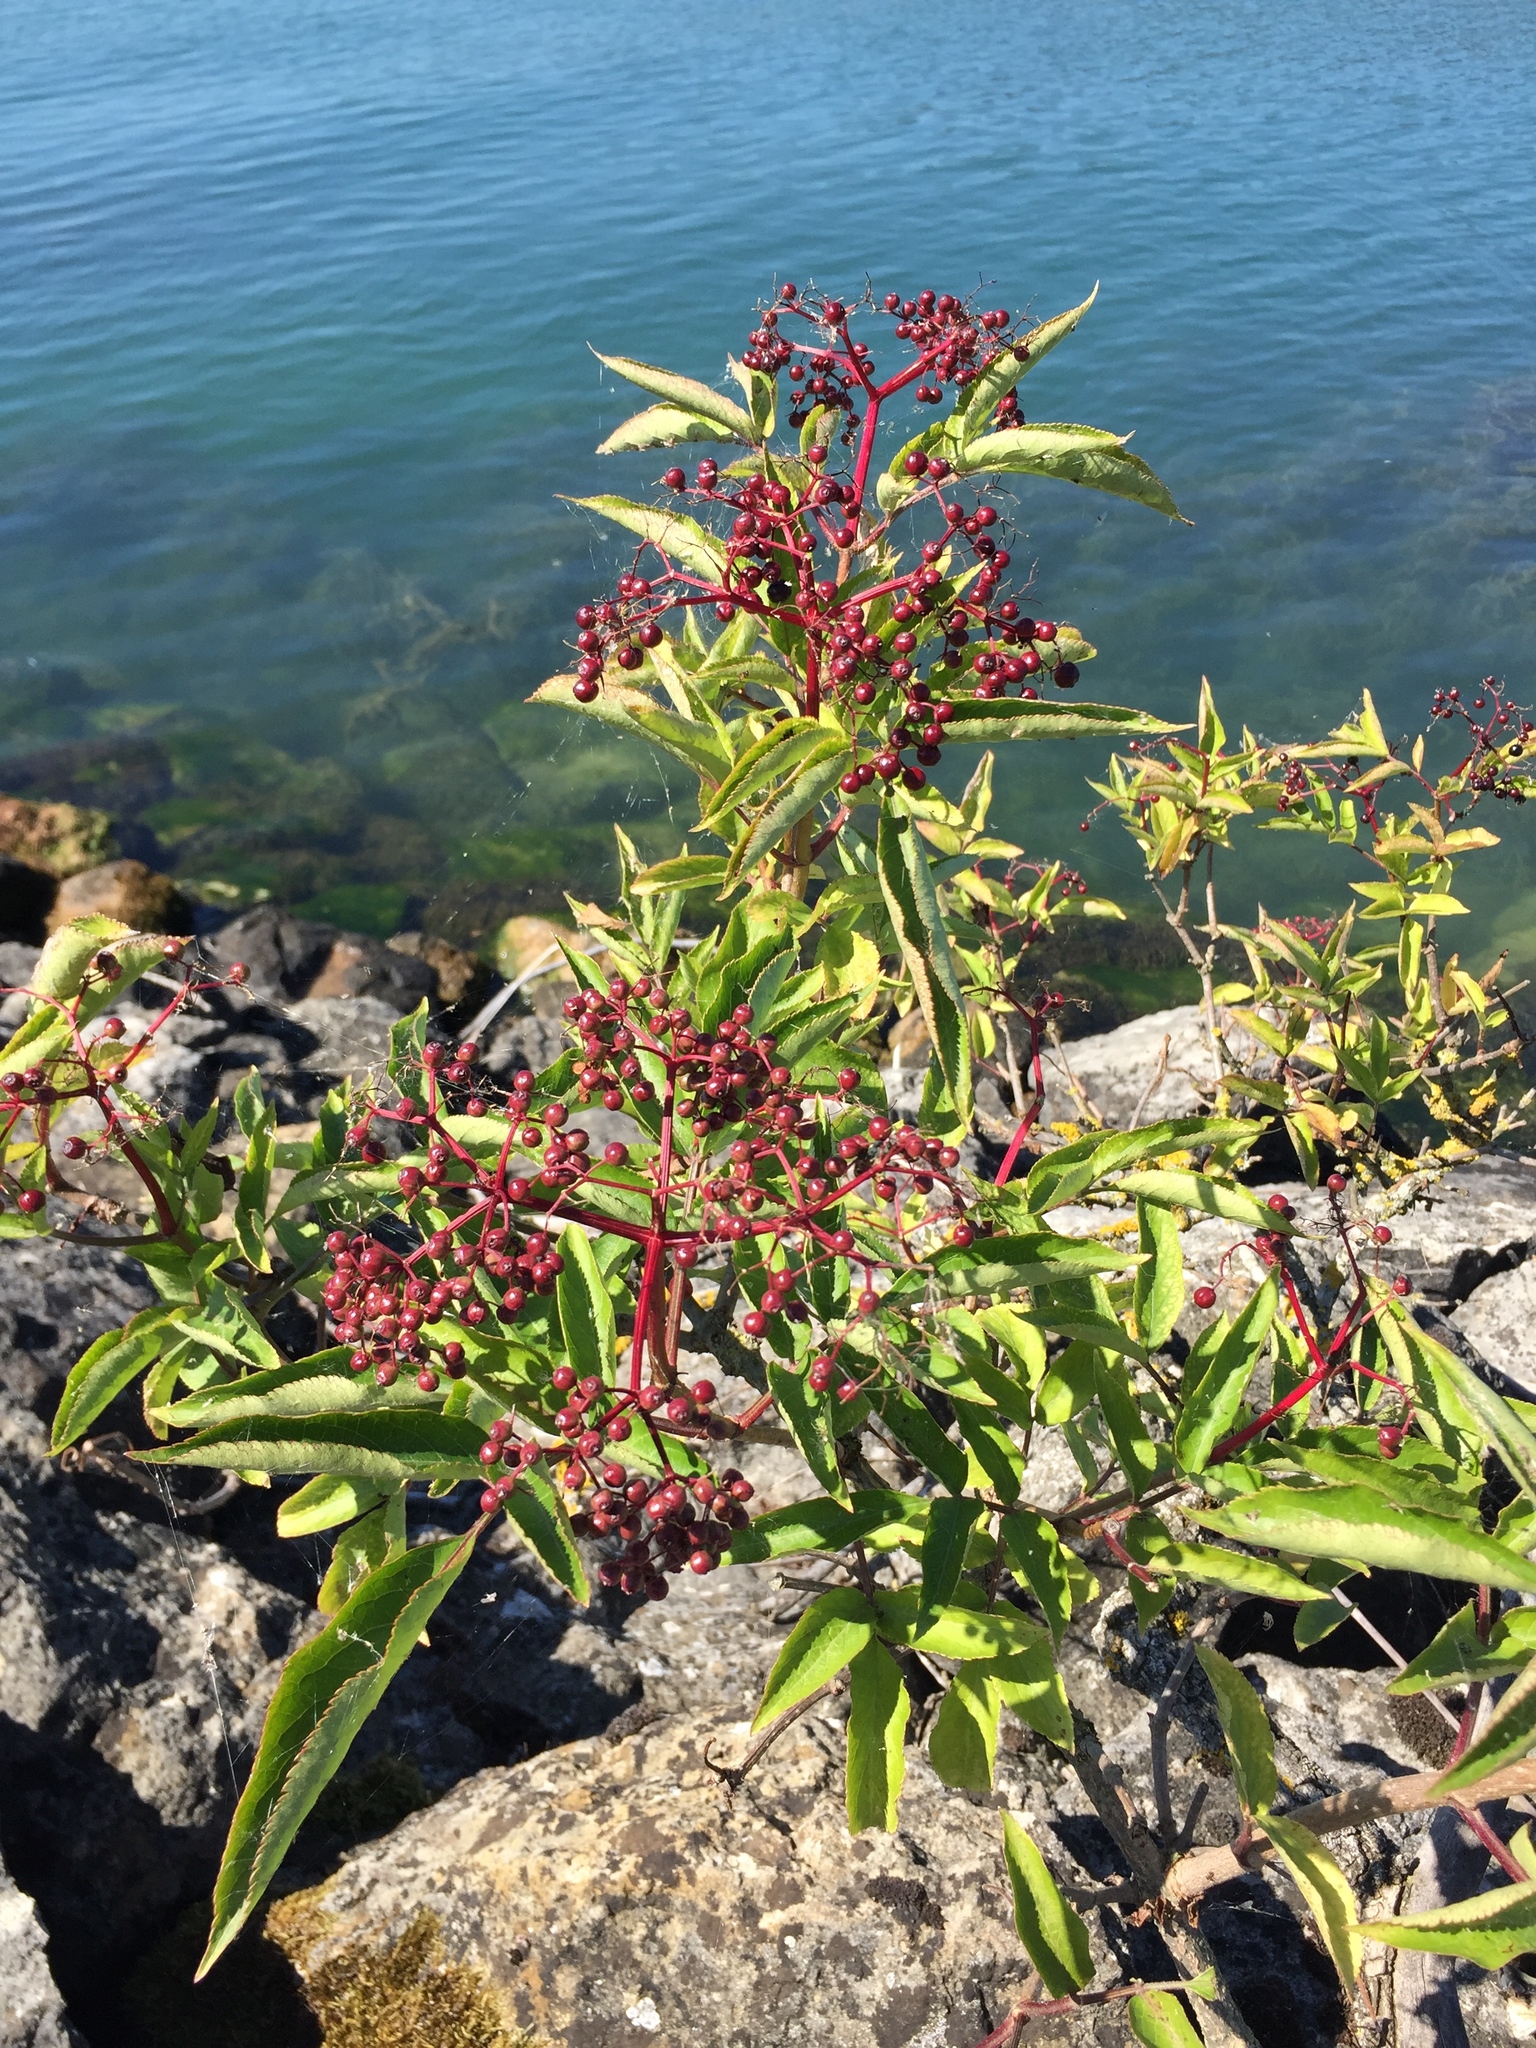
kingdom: Plantae
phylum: Tracheophyta
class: Magnoliopsida
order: Dipsacales
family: Viburnaceae
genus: Sambucus
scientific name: Sambucus nigra
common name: Elder
